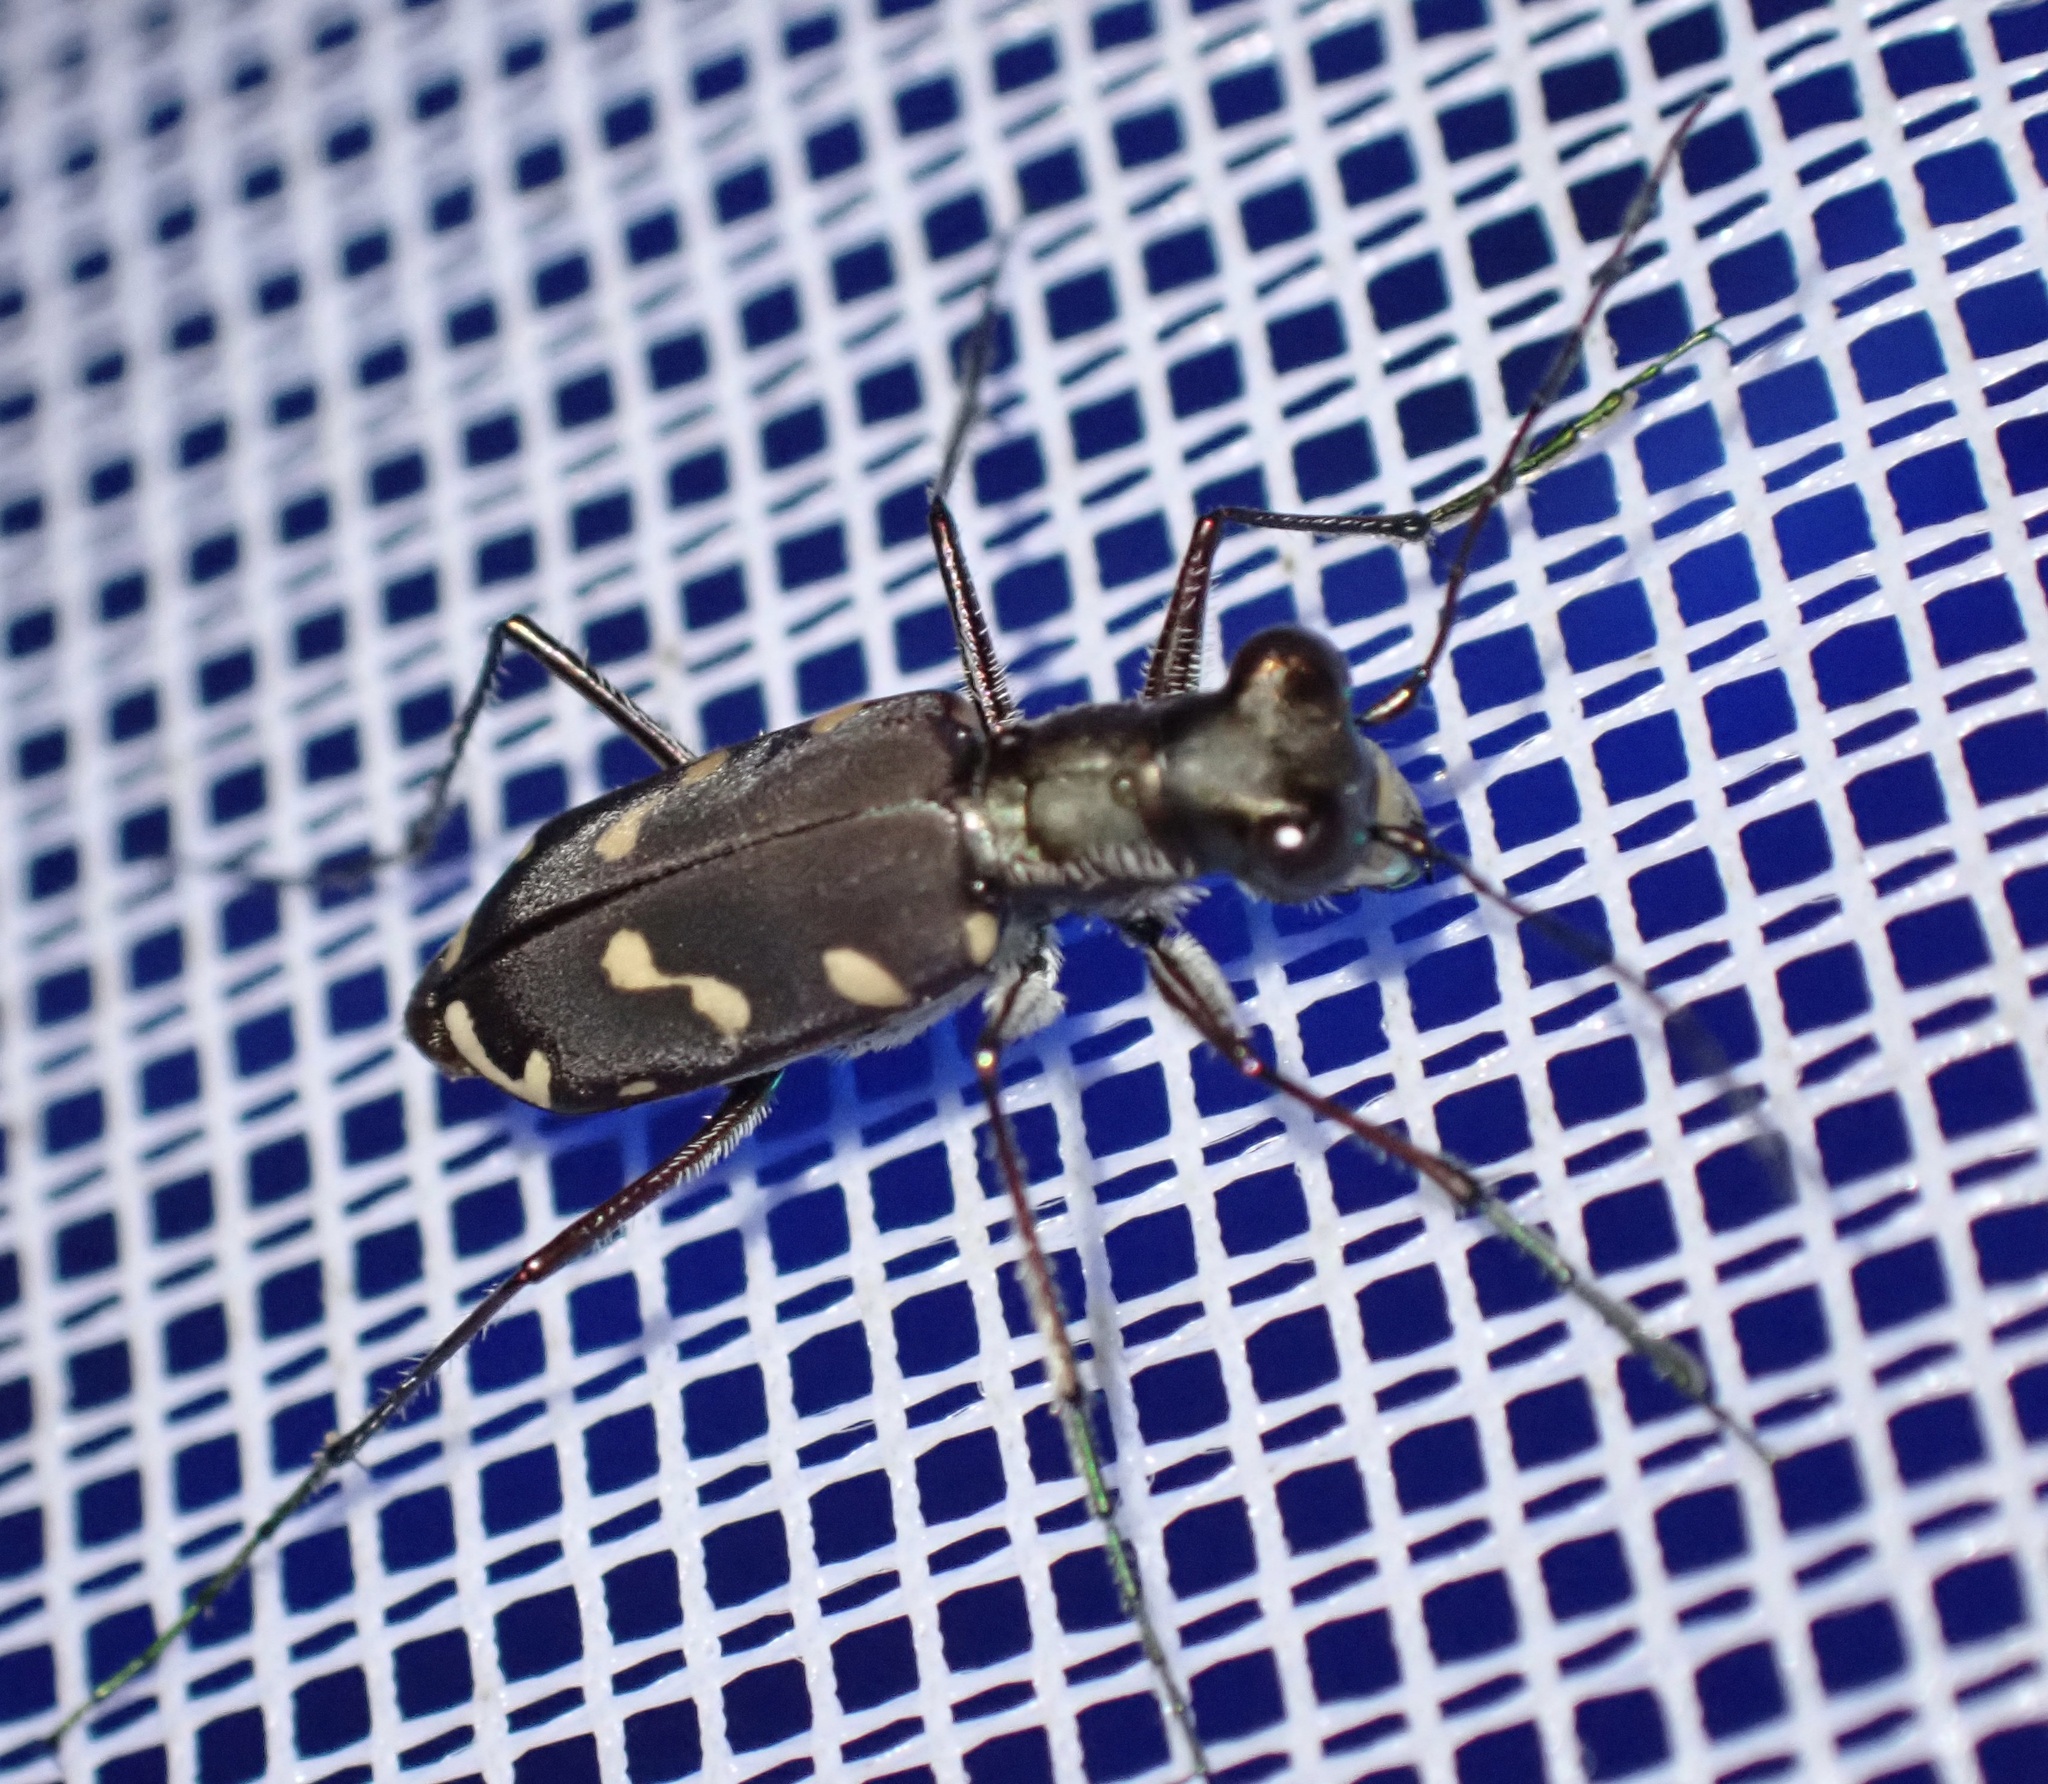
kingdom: Animalia
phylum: Arthropoda
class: Insecta
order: Coleoptera
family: Carabidae
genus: Cicindela
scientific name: Cicindela decemguttata
